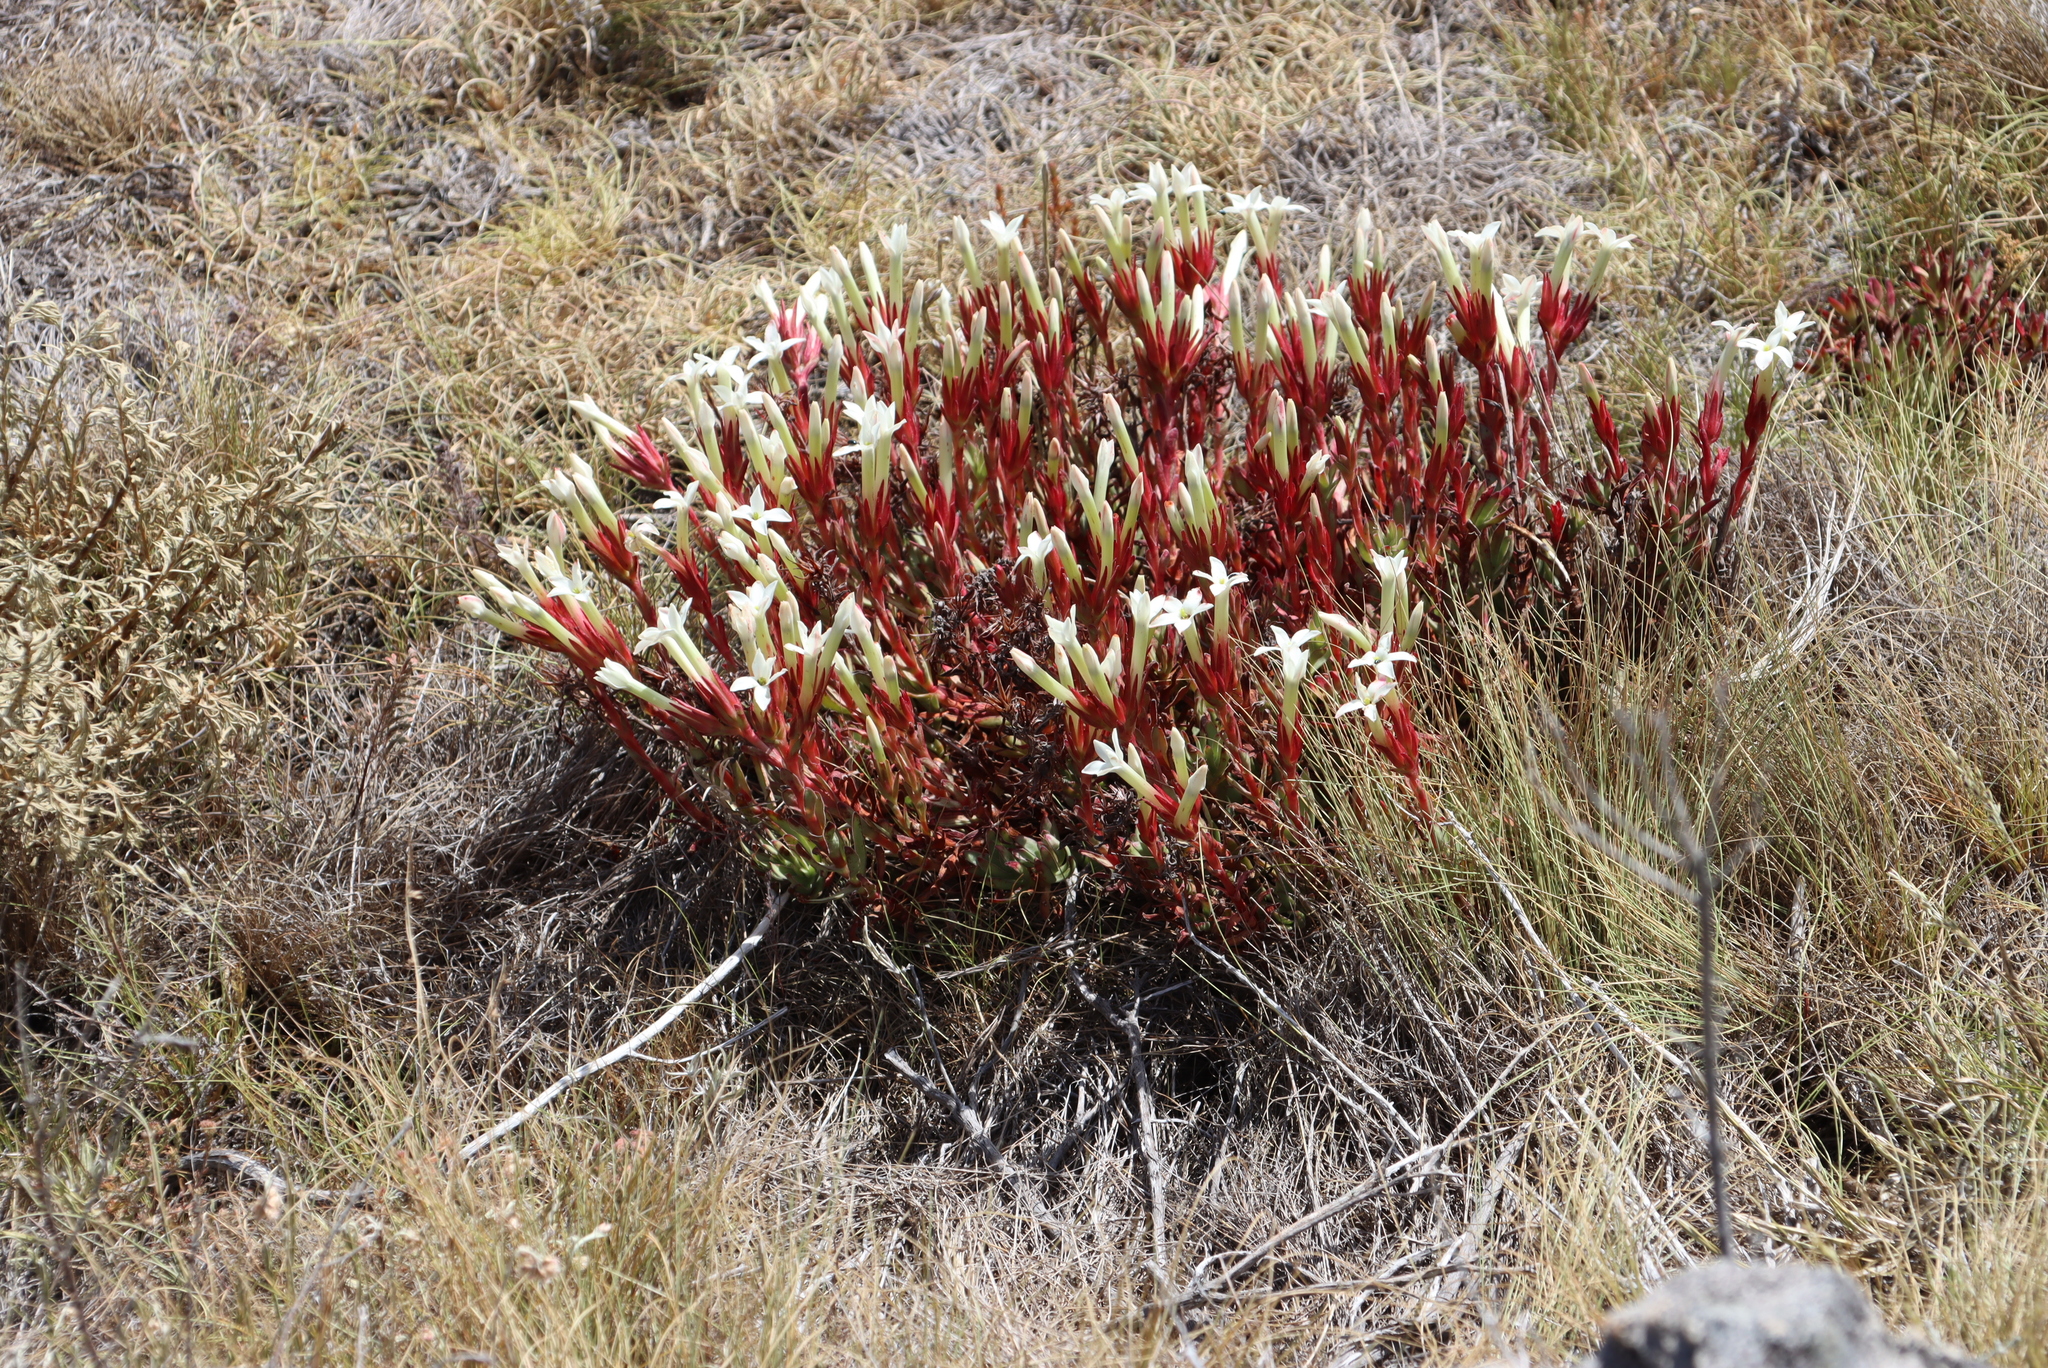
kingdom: Plantae
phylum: Tracheophyta
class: Magnoliopsida
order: Saxifragales
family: Crassulaceae
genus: Crassula
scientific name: Crassula obtusa
